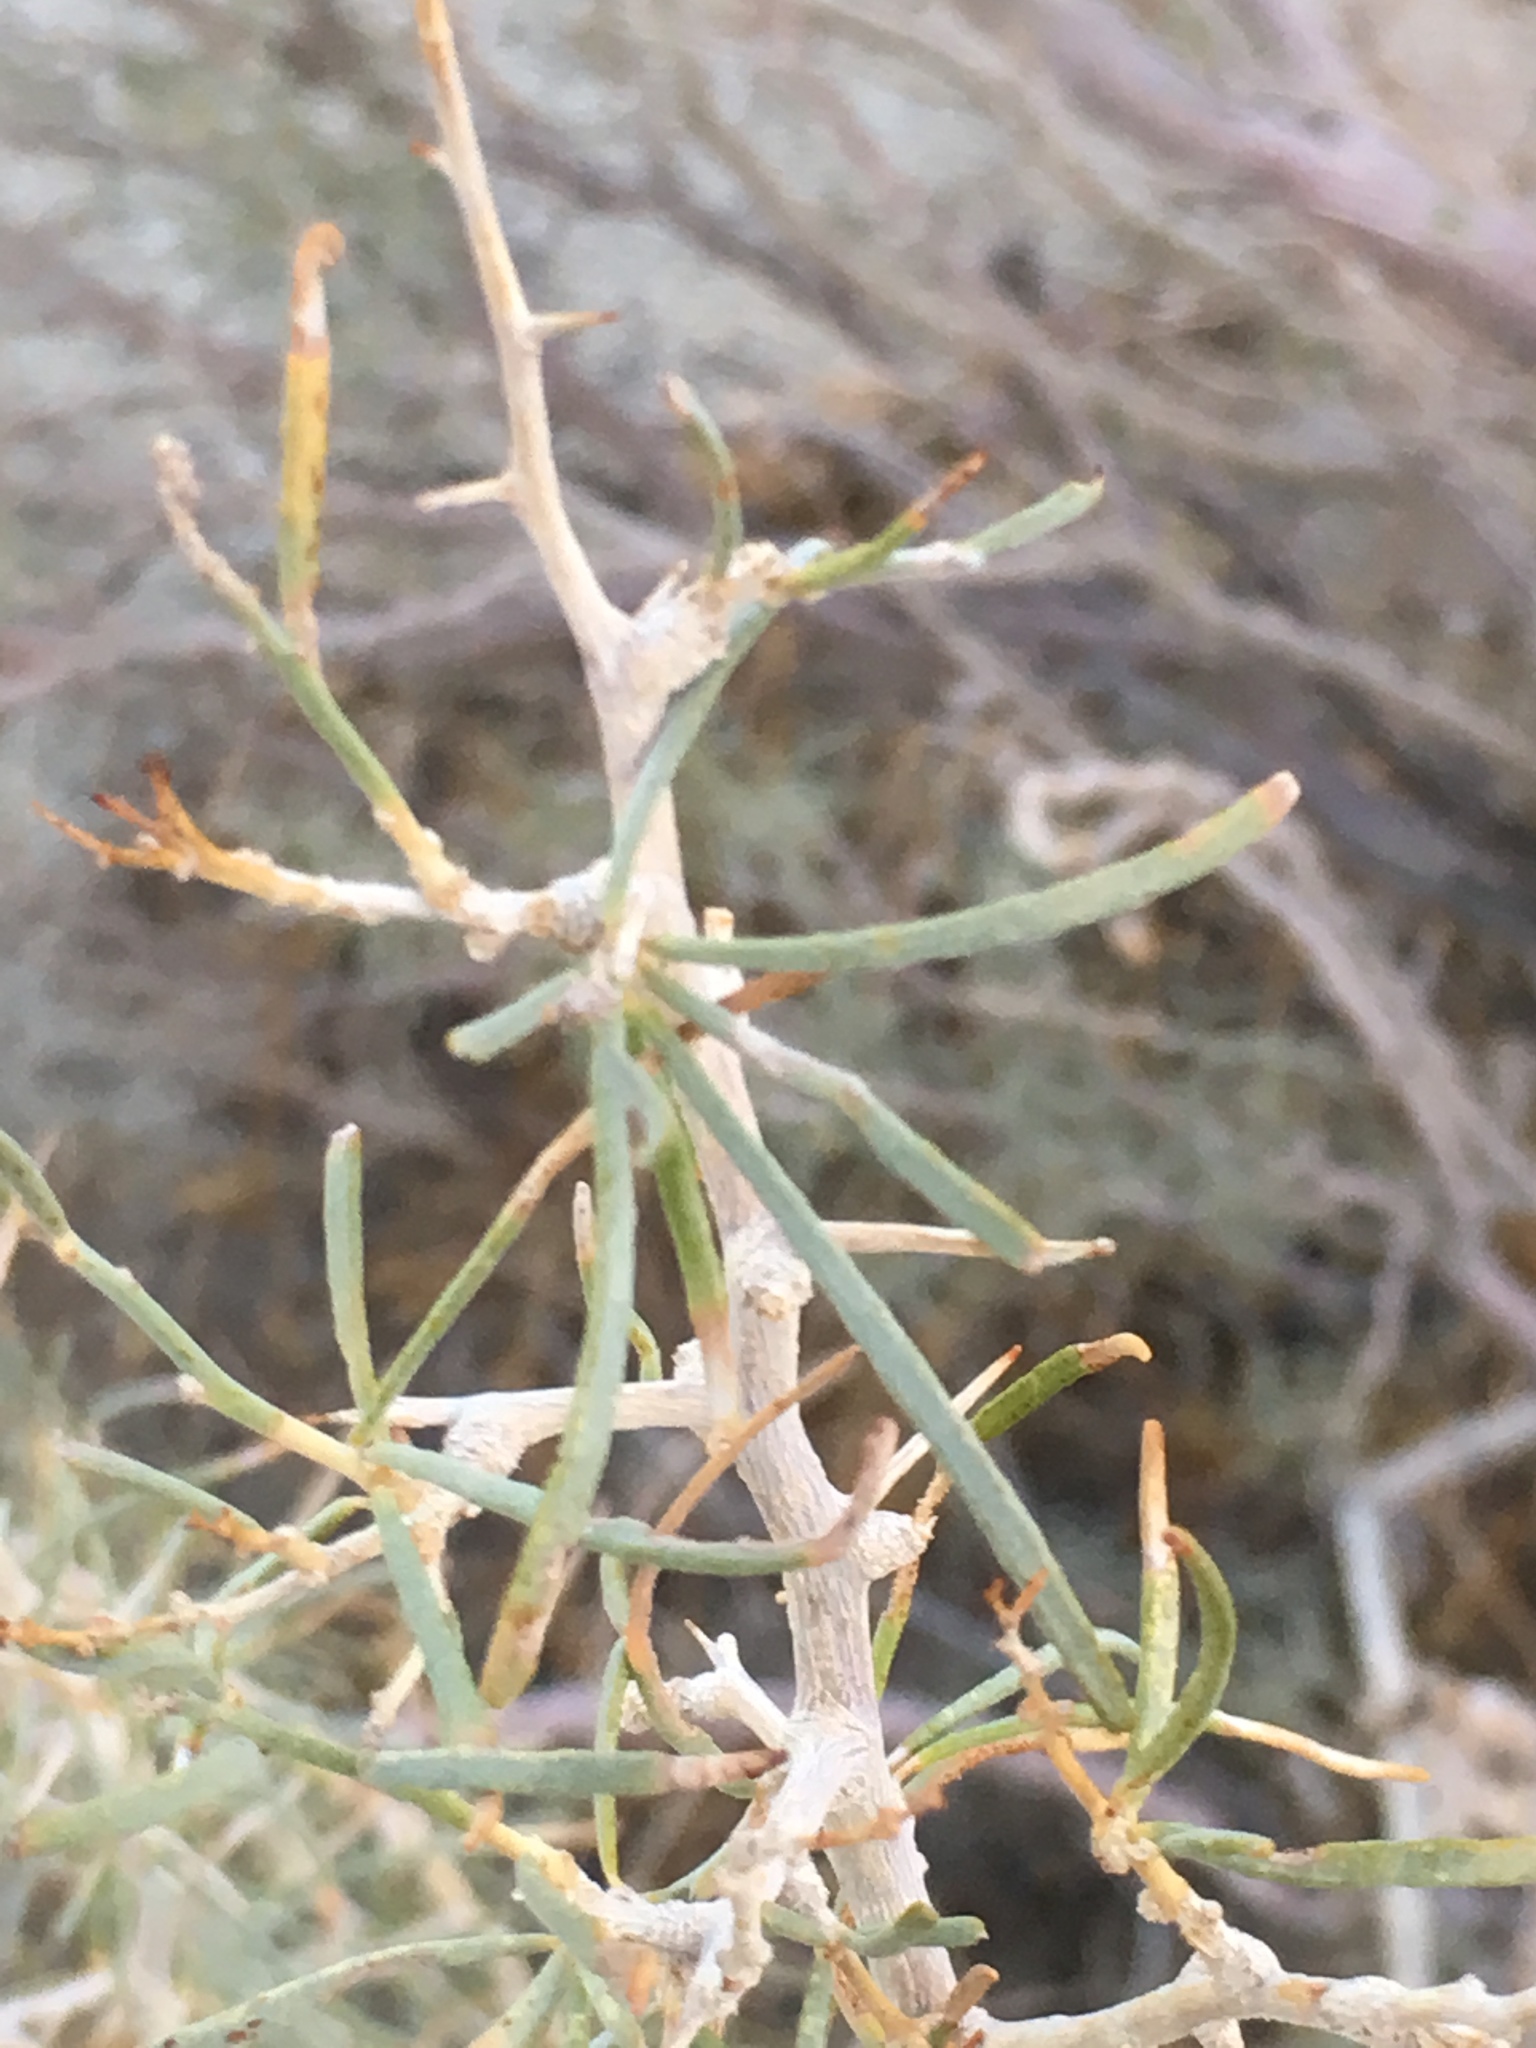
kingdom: Plantae
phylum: Tracheophyta
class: Magnoliopsida
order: Fabales
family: Fabaceae
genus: Psorothamnus
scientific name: Psorothamnus schottii
